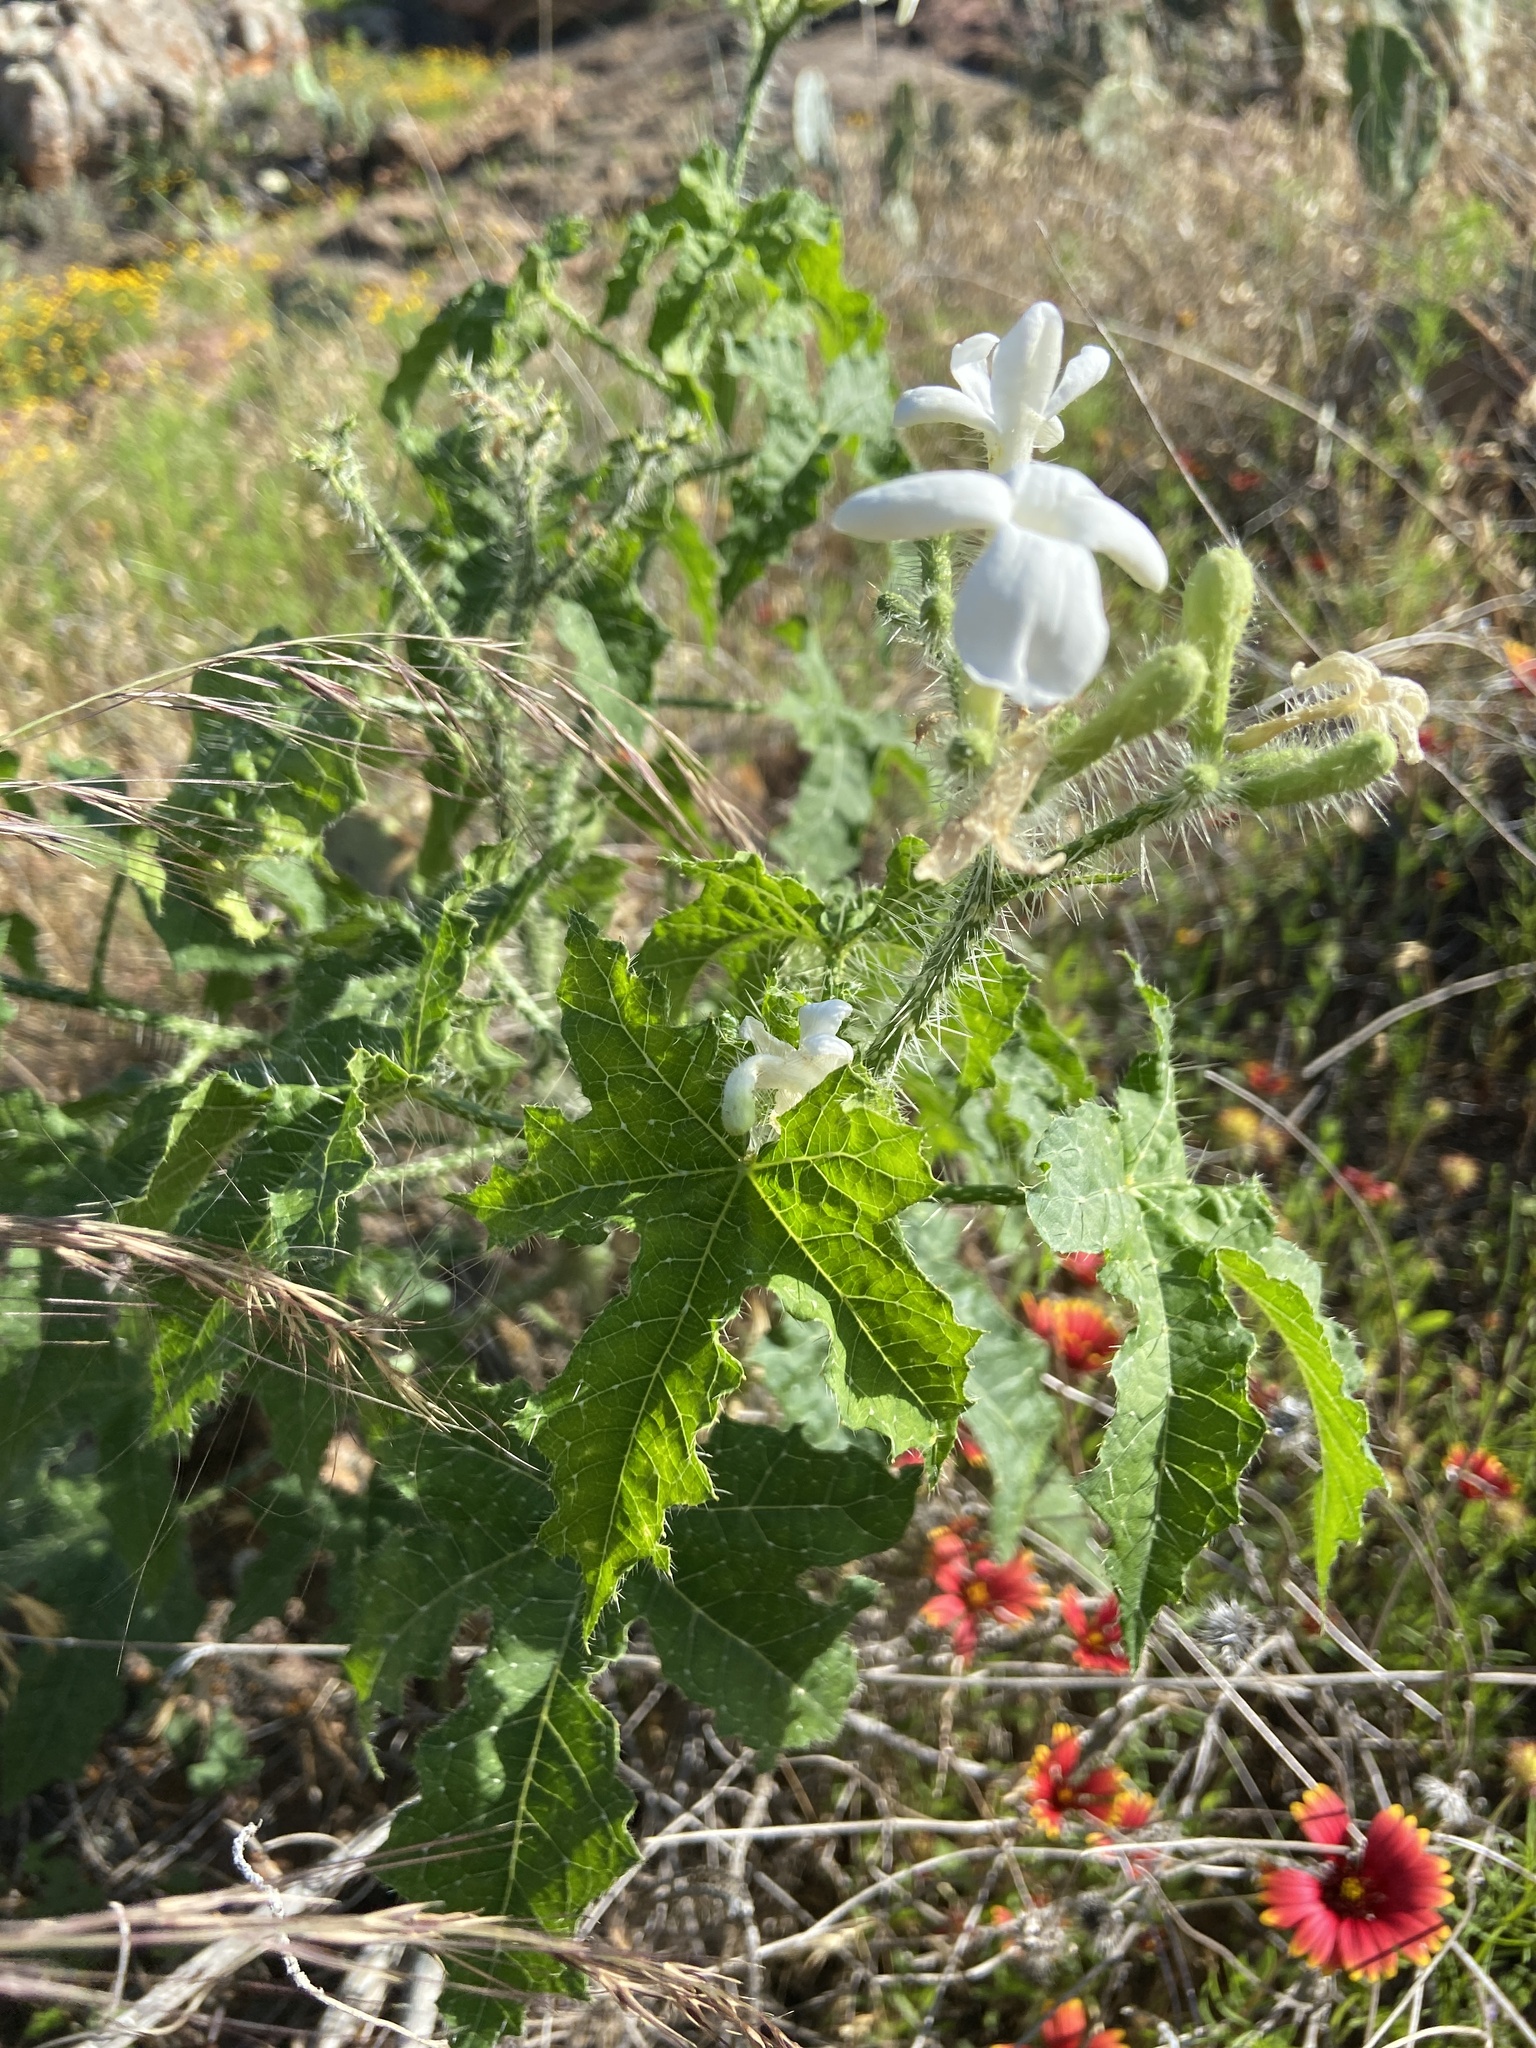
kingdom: Plantae
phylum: Tracheophyta
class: Magnoliopsida
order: Malpighiales
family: Euphorbiaceae
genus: Cnidoscolus
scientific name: Cnidoscolus texanus
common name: Texas bull-nettle
